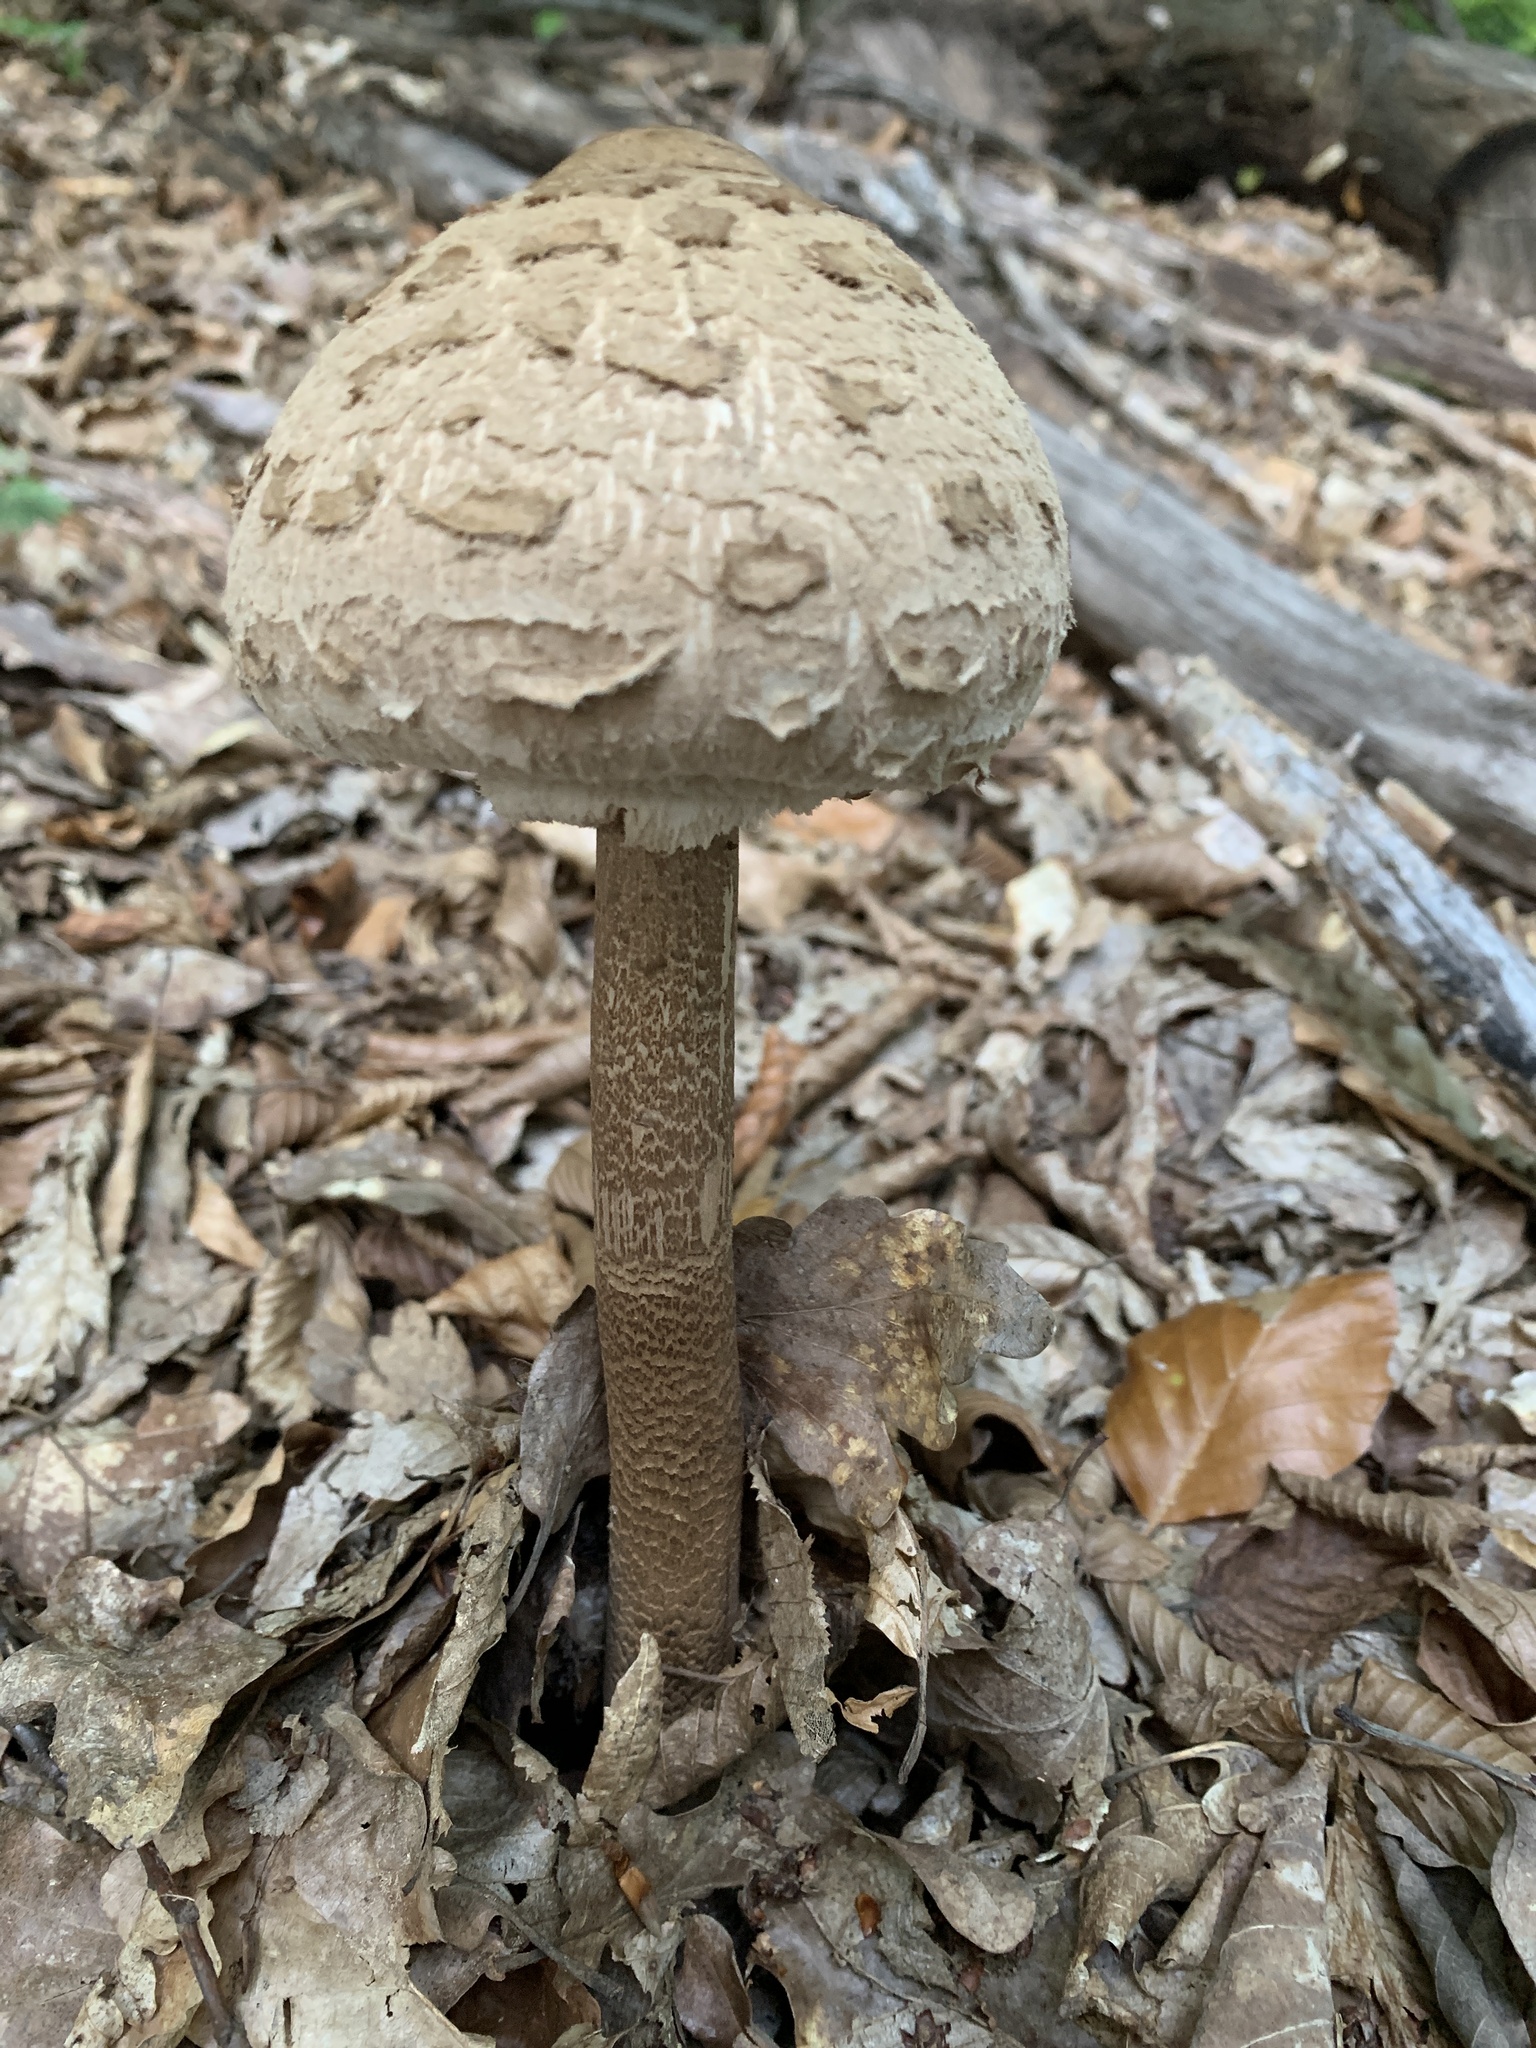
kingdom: Fungi
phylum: Basidiomycota
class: Agaricomycetes
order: Agaricales
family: Agaricaceae
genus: Macrolepiota
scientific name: Macrolepiota procera
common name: Parasol
